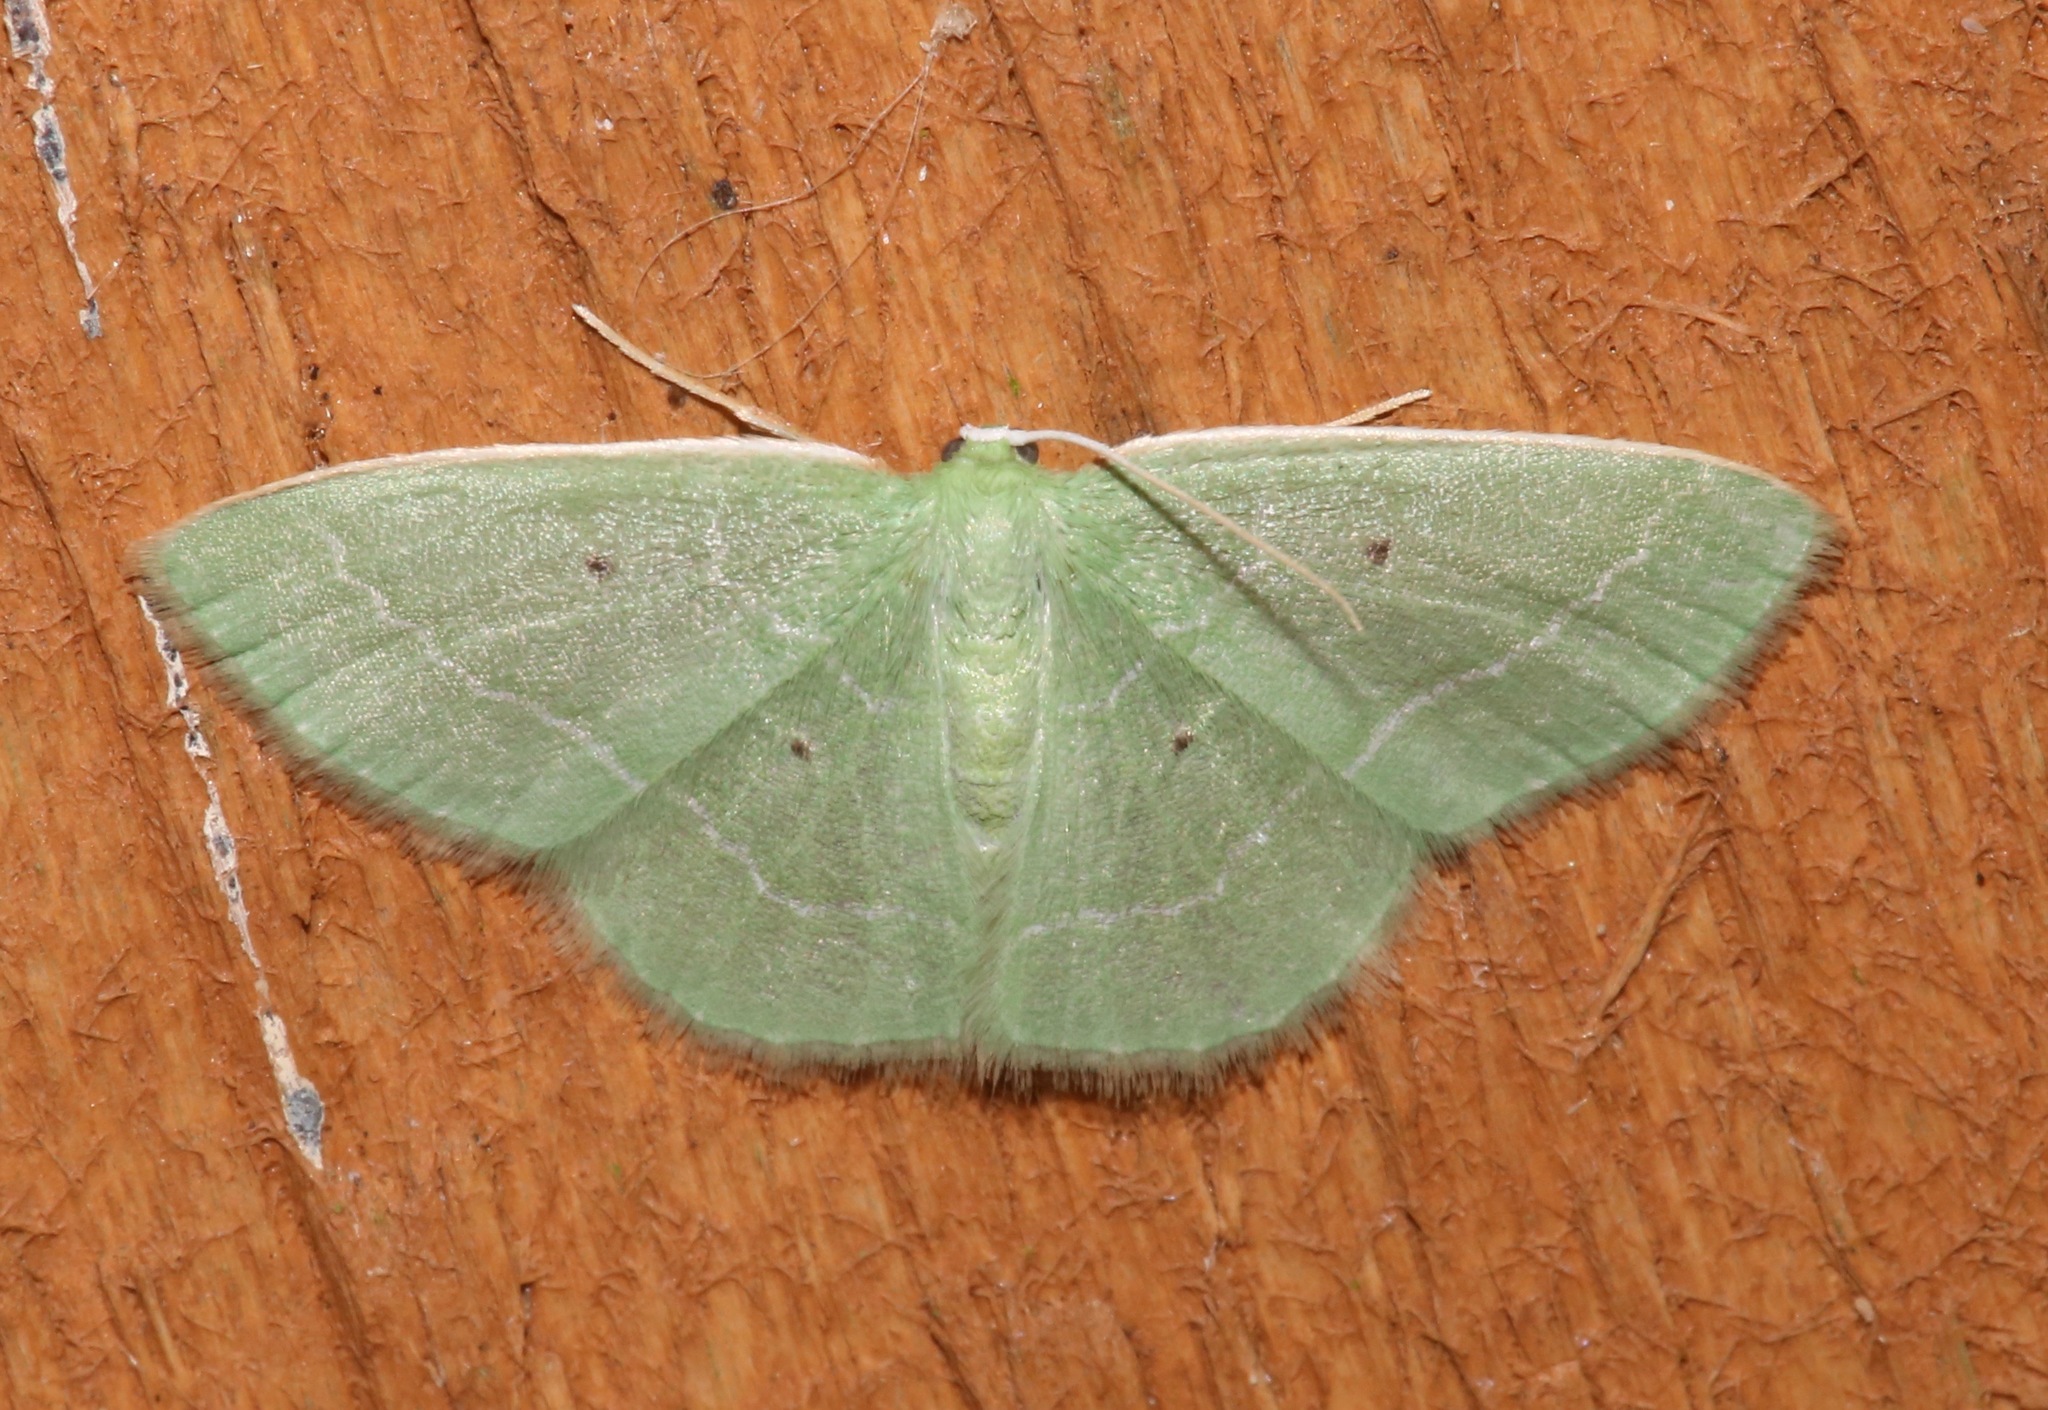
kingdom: Animalia
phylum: Arthropoda
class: Insecta
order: Lepidoptera
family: Geometridae
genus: Nemoria
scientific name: Nemoria elfa
